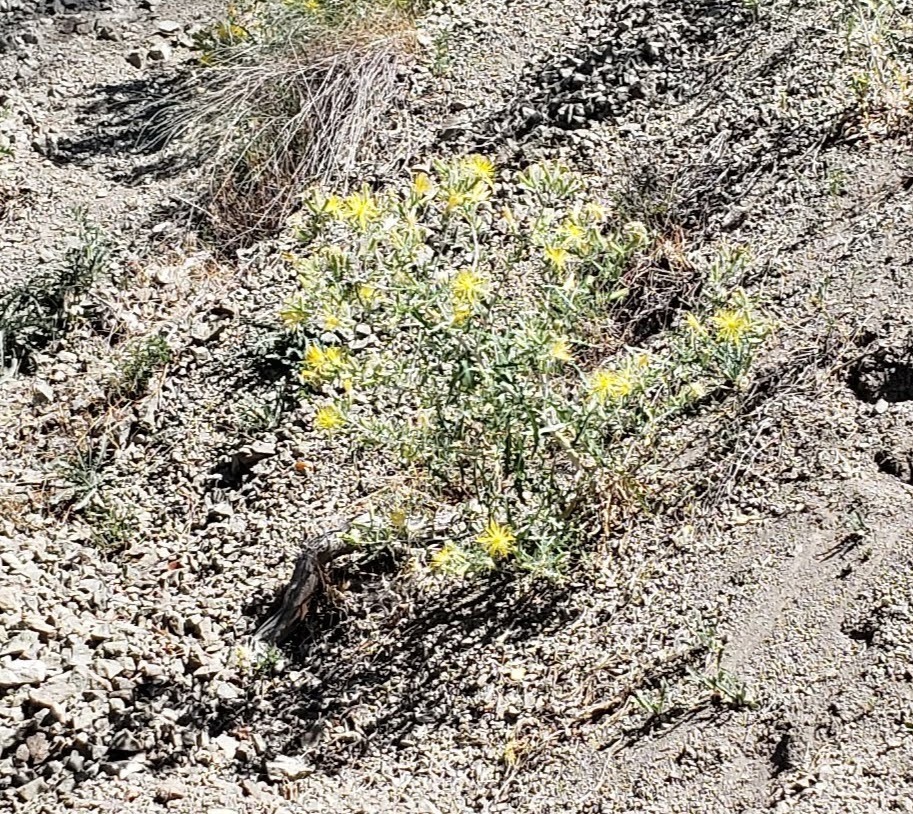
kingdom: Plantae
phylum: Tracheophyta
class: Magnoliopsida
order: Cornales
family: Loasaceae
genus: Mentzelia
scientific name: Mentzelia laevicaulis
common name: Smooth-stem blazingstar
